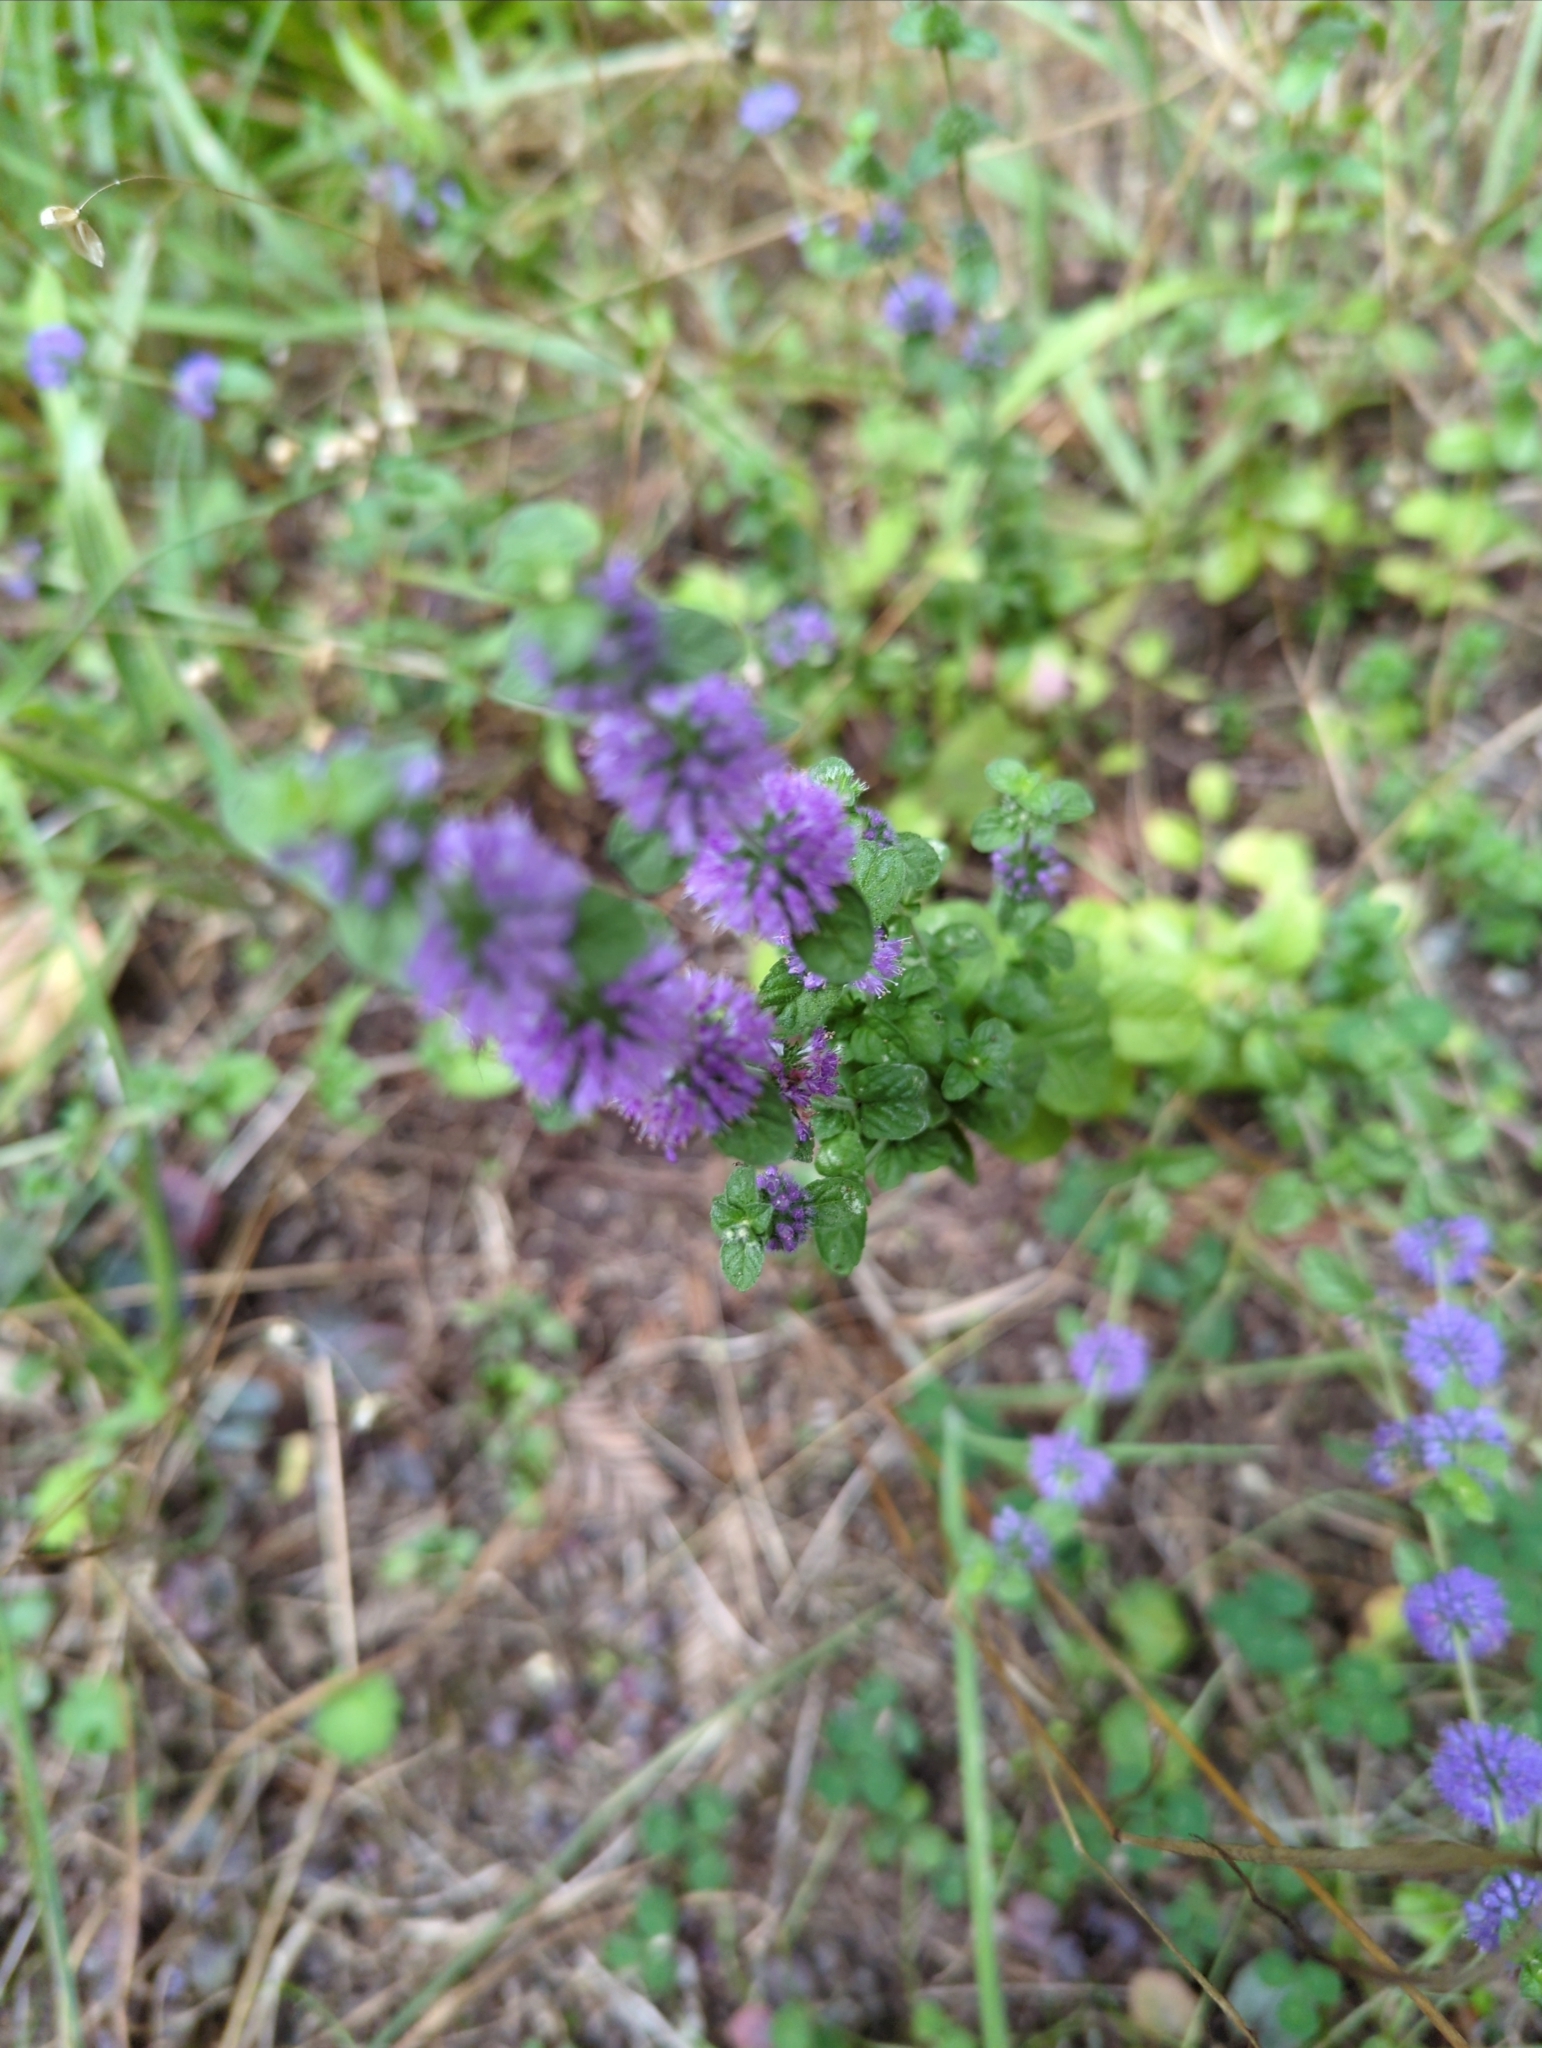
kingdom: Plantae
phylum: Tracheophyta
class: Magnoliopsida
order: Lamiales
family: Lamiaceae
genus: Mentha
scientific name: Mentha pulegium
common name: Pennyroyal
